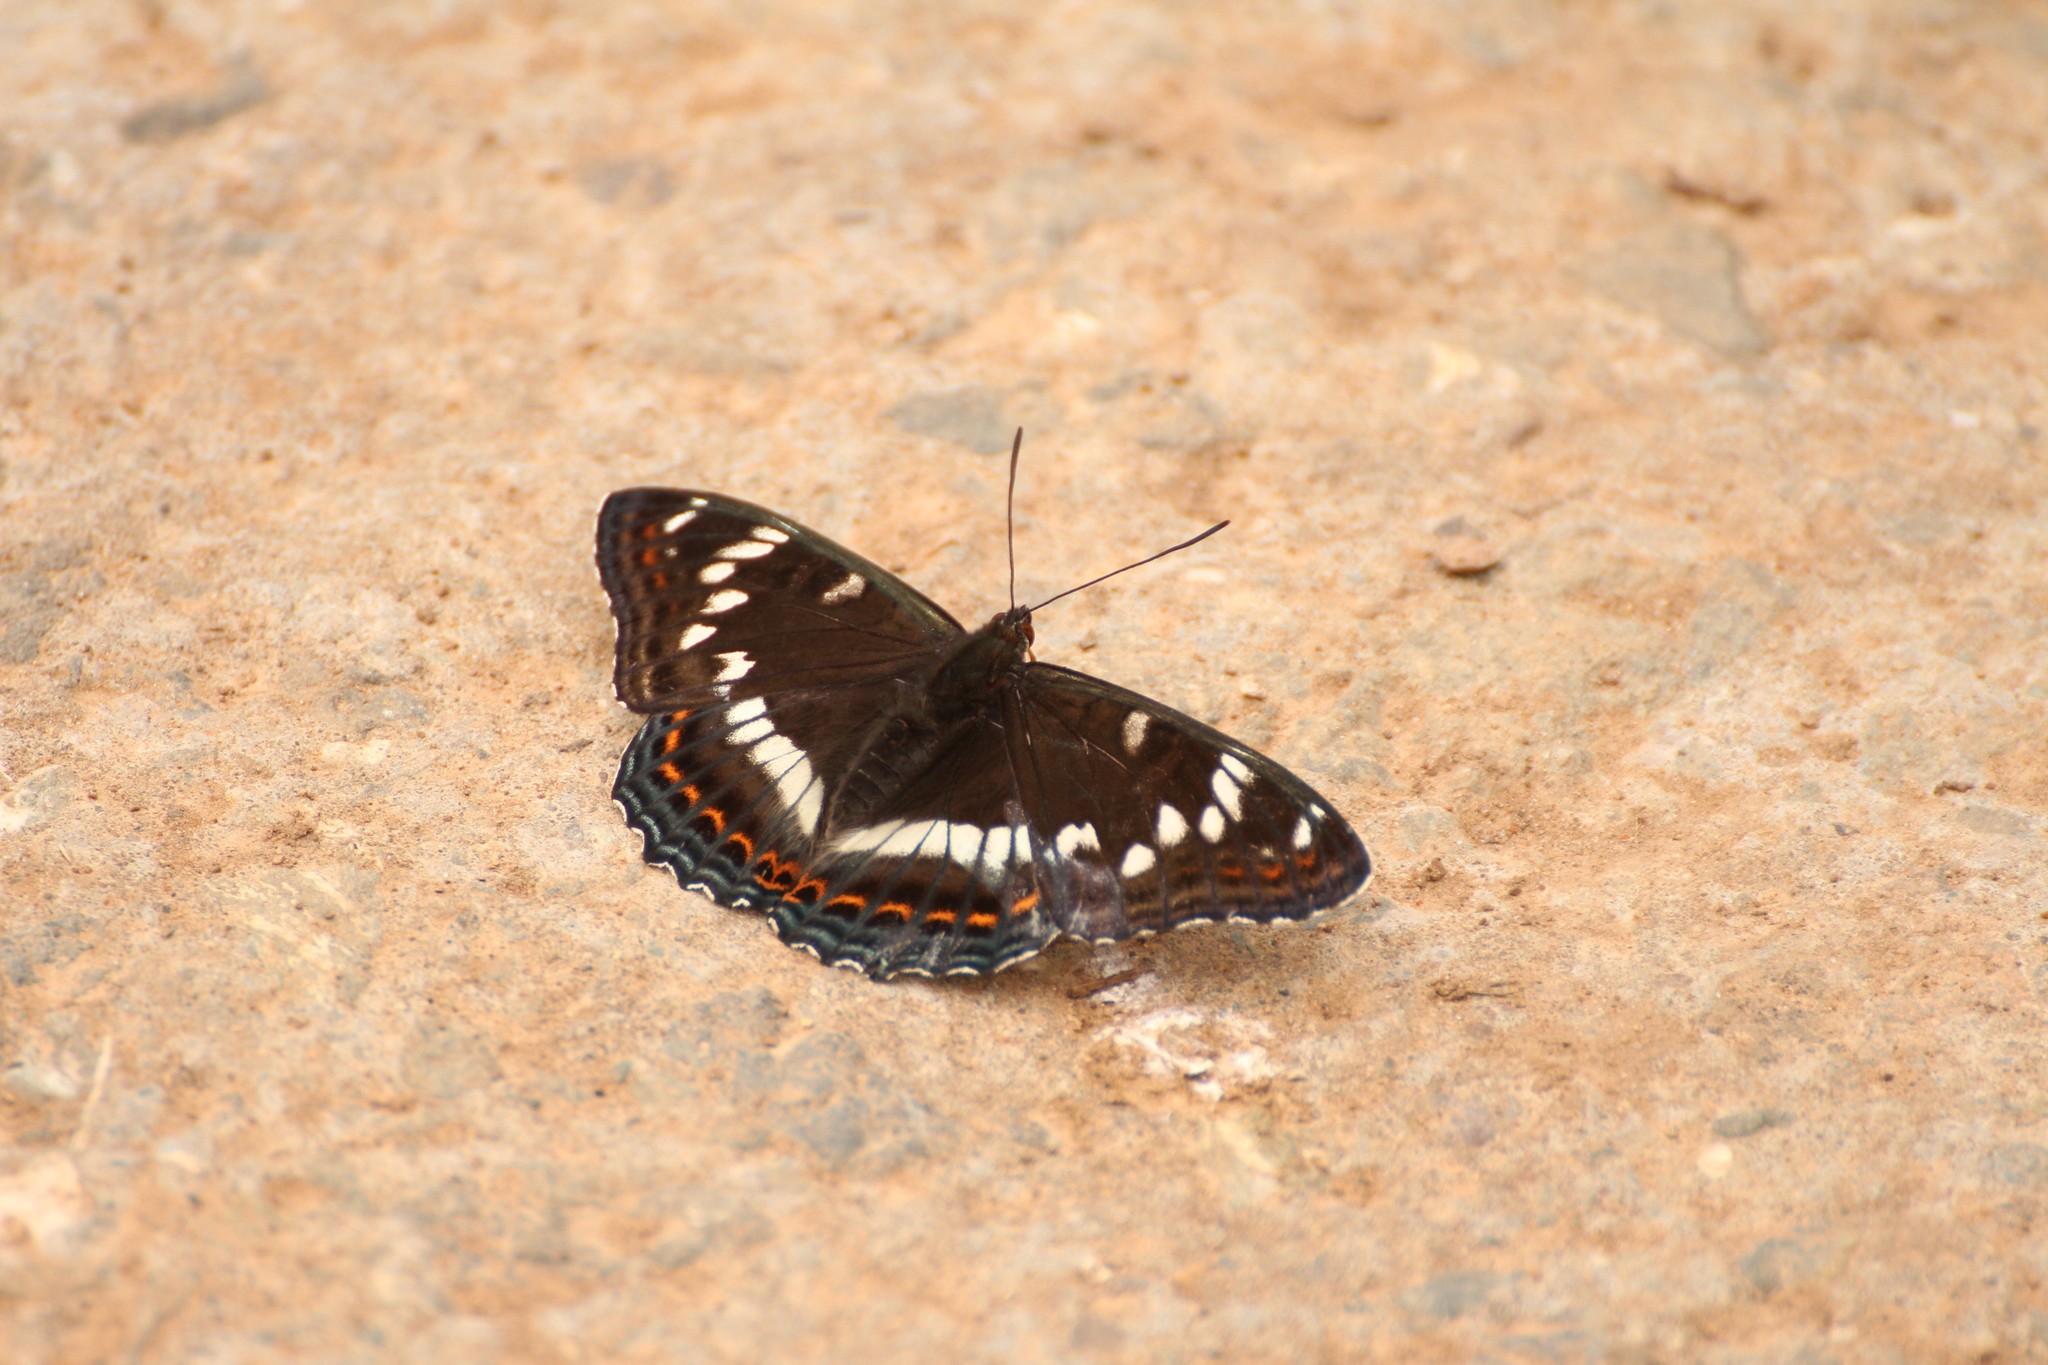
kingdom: Animalia
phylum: Arthropoda
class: Insecta
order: Lepidoptera
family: Nymphalidae
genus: Limenitis
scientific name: Limenitis populi
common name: Poplar admiral
